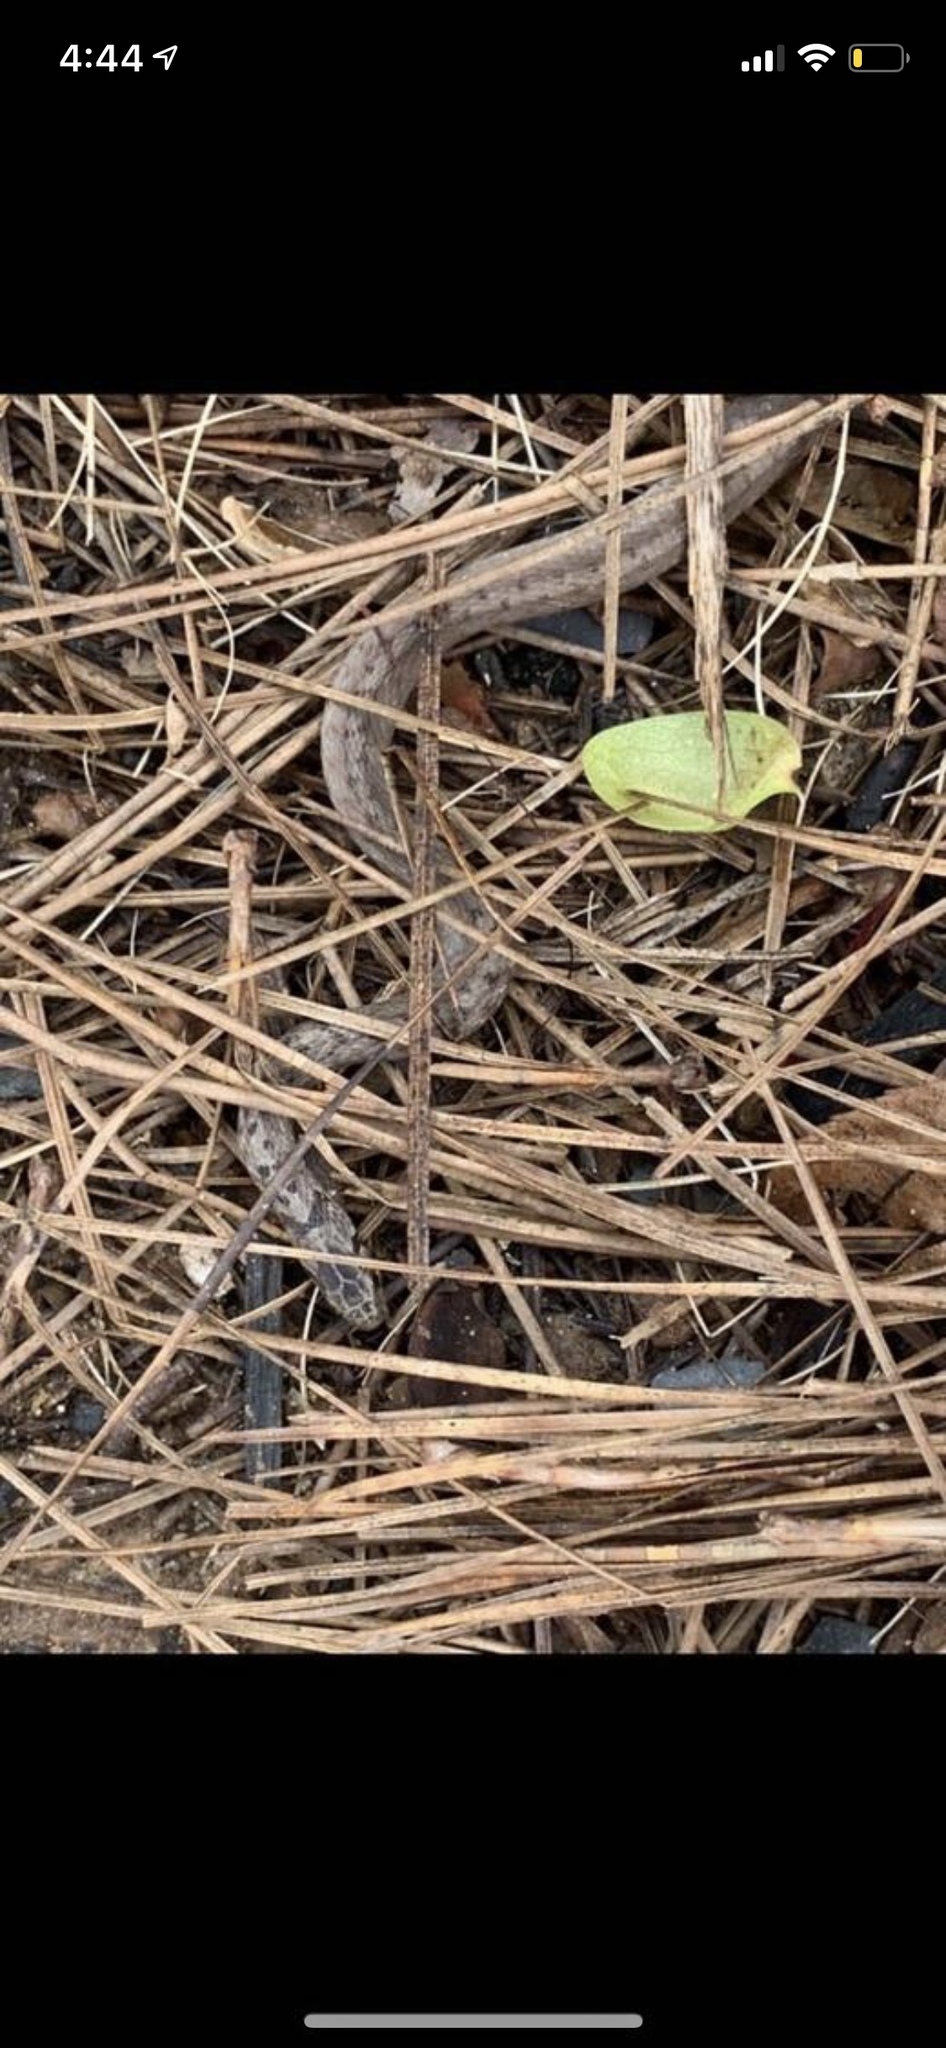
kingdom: Animalia
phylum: Chordata
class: Squamata
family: Colubridae
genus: Storeria
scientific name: Storeria dekayi
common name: (dekay’s) brown snake
